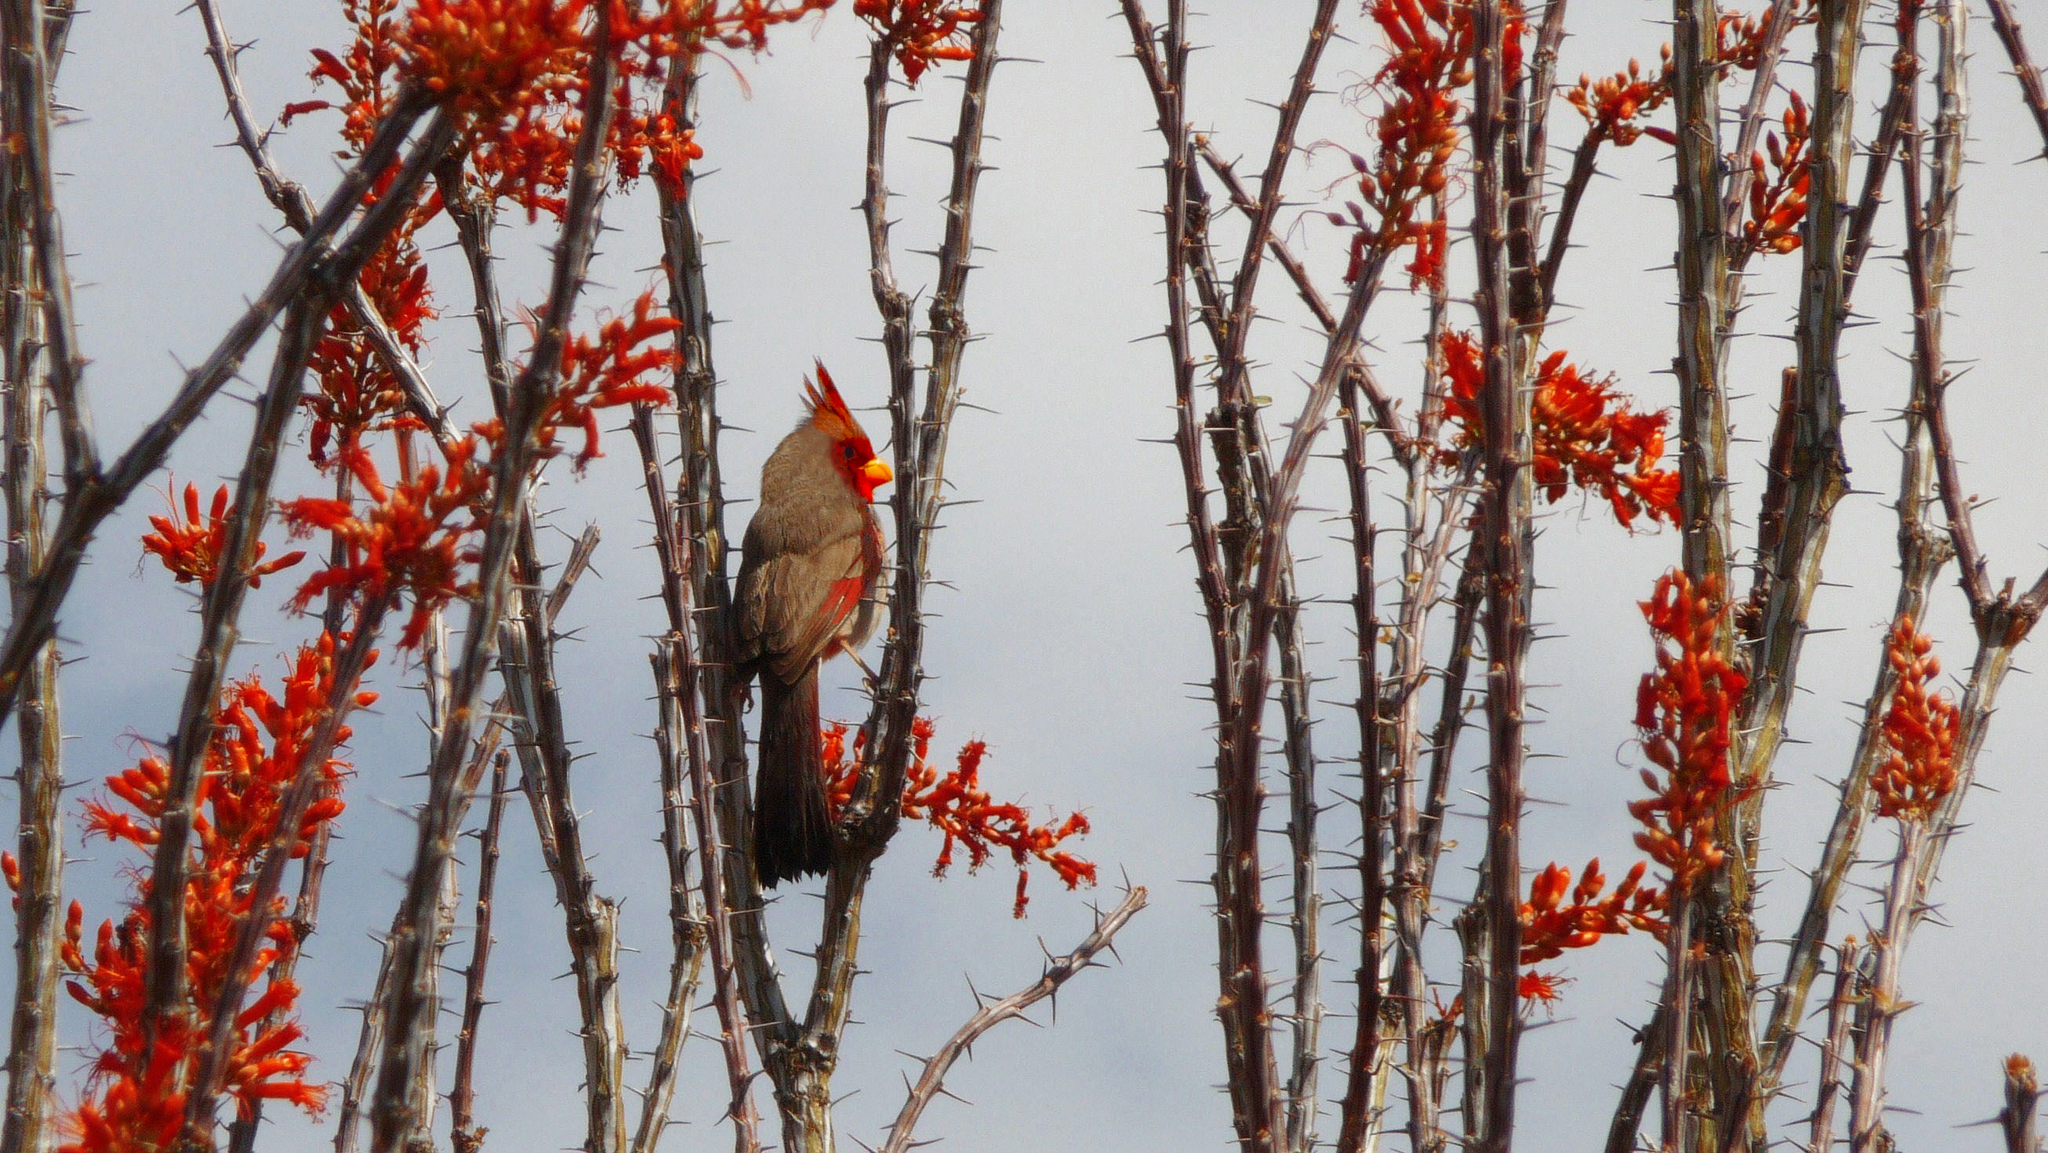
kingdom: Animalia
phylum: Chordata
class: Aves
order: Passeriformes
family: Cardinalidae
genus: Cardinalis
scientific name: Cardinalis sinuatus
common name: Pyrrhuloxia
